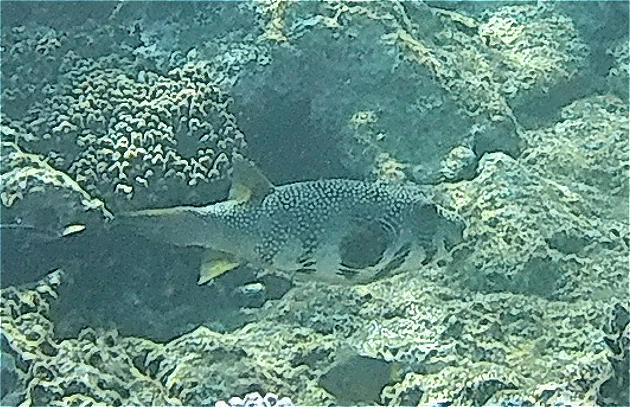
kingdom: Animalia
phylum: Chordata
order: Tetraodontiformes
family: Tetraodontidae
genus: Arothron
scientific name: Arothron hispidus
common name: Stripebelly puffer
